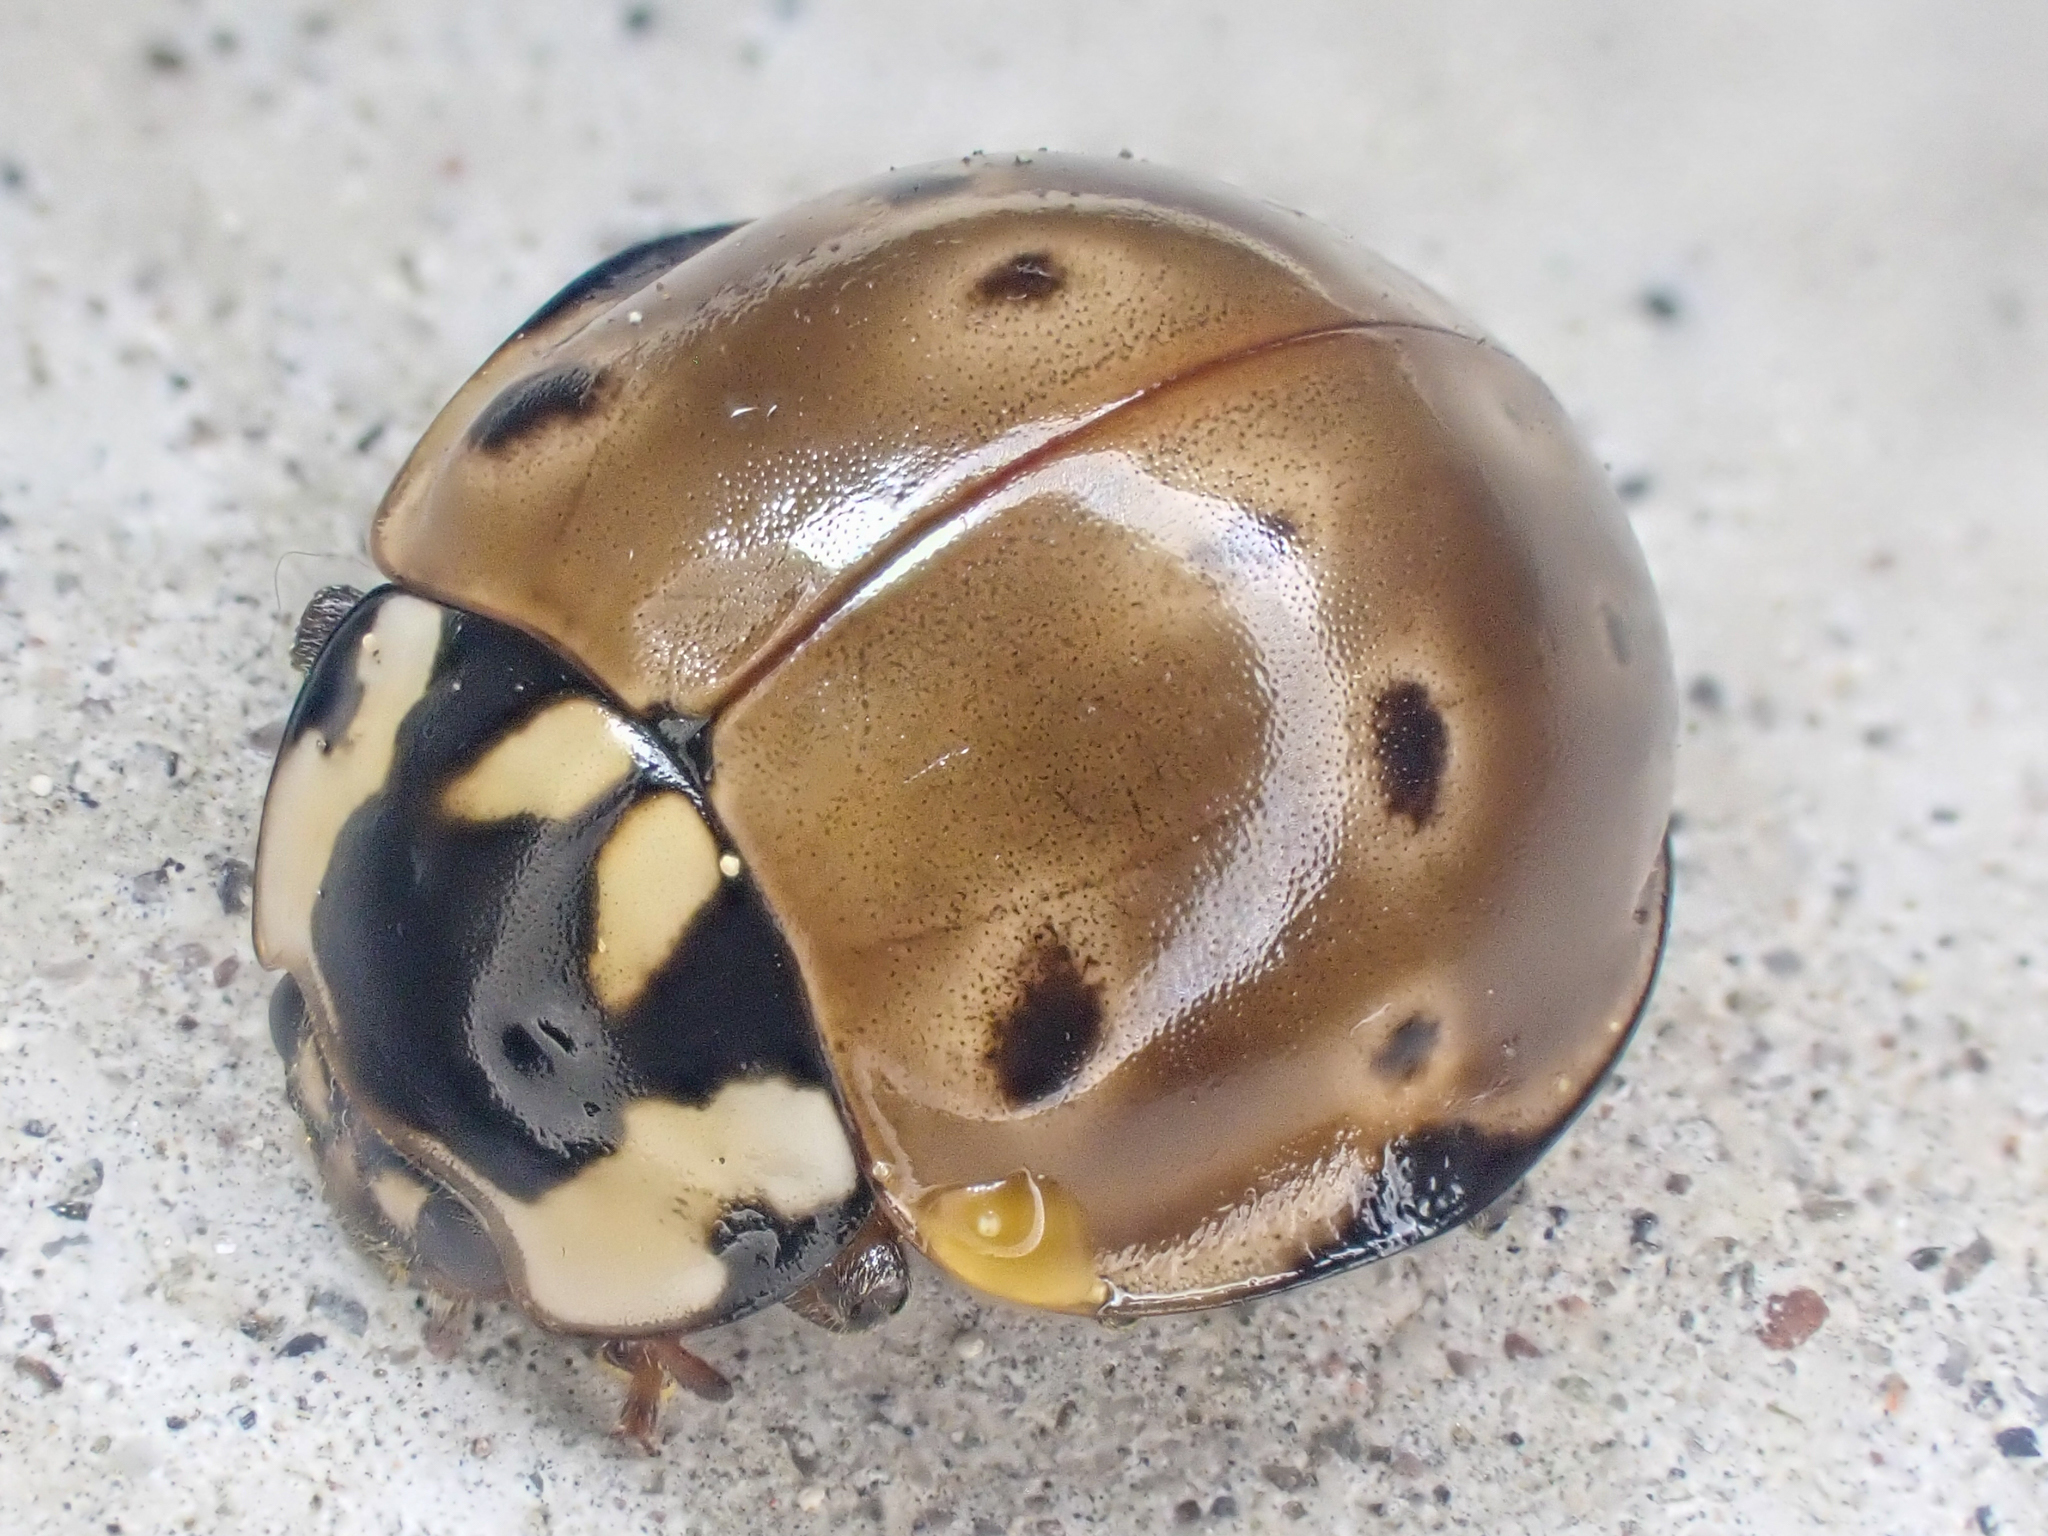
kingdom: Animalia
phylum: Arthropoda
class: Insecta
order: Coleoptera
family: Coccinellidae
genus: Anatis
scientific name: Anatis rathvoni
